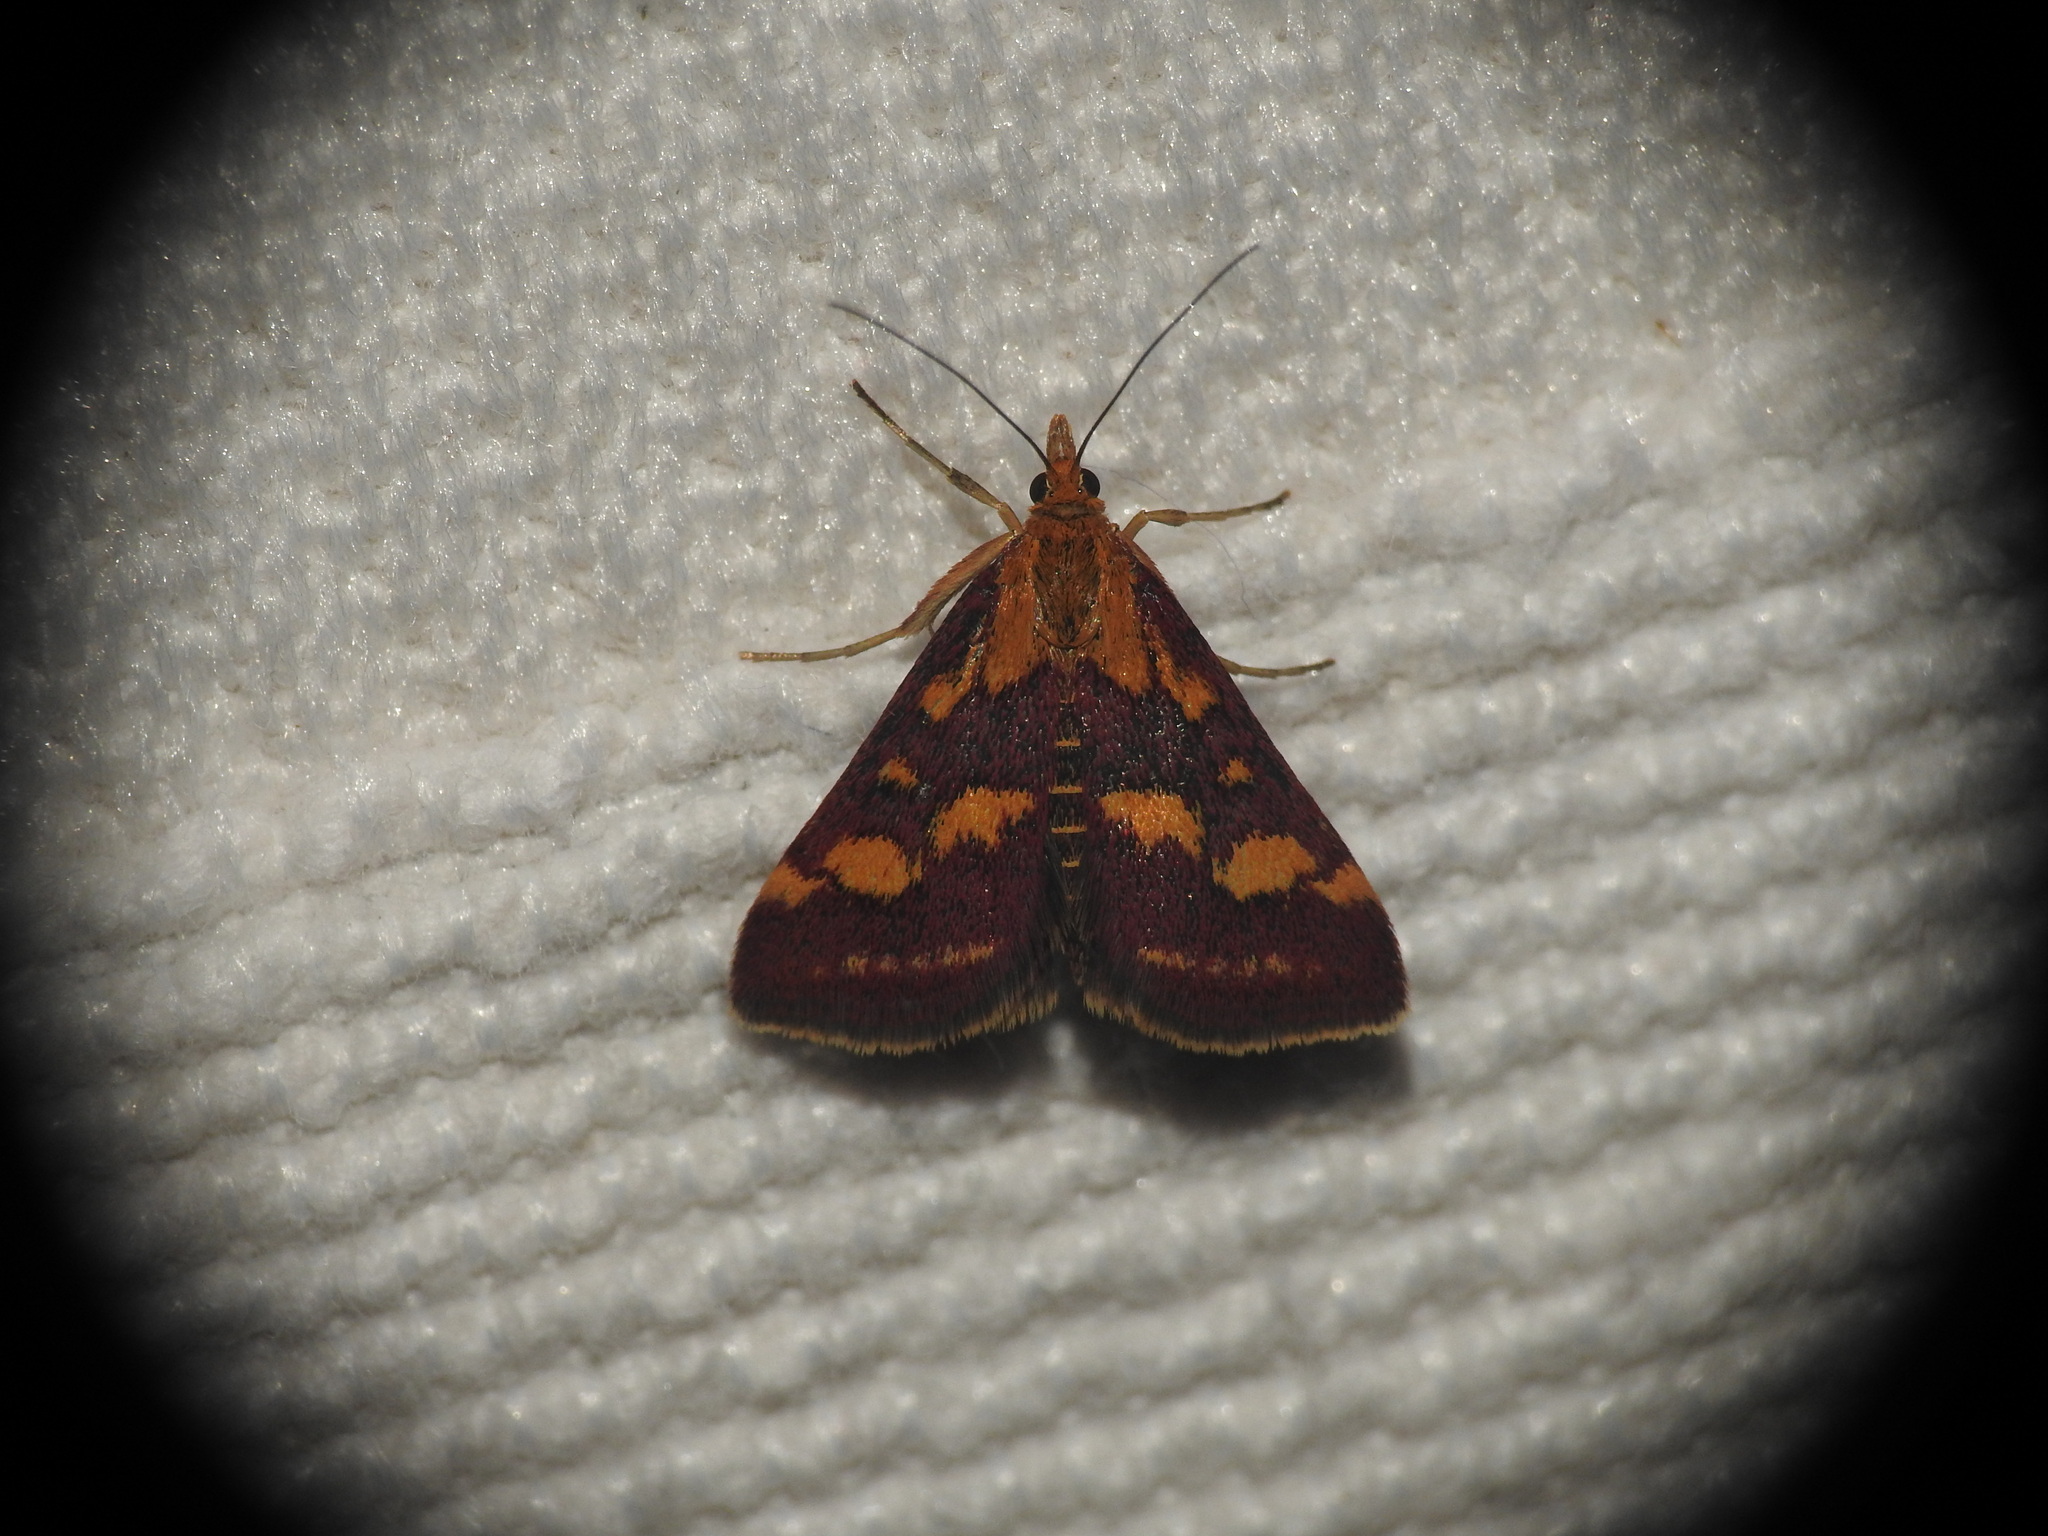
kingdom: Animalia
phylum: Arthropoda
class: Insecta
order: Lepidoptera
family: Crambidae
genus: Pyrausta
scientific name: Pyrausta purpuralis
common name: Common purple & gold
